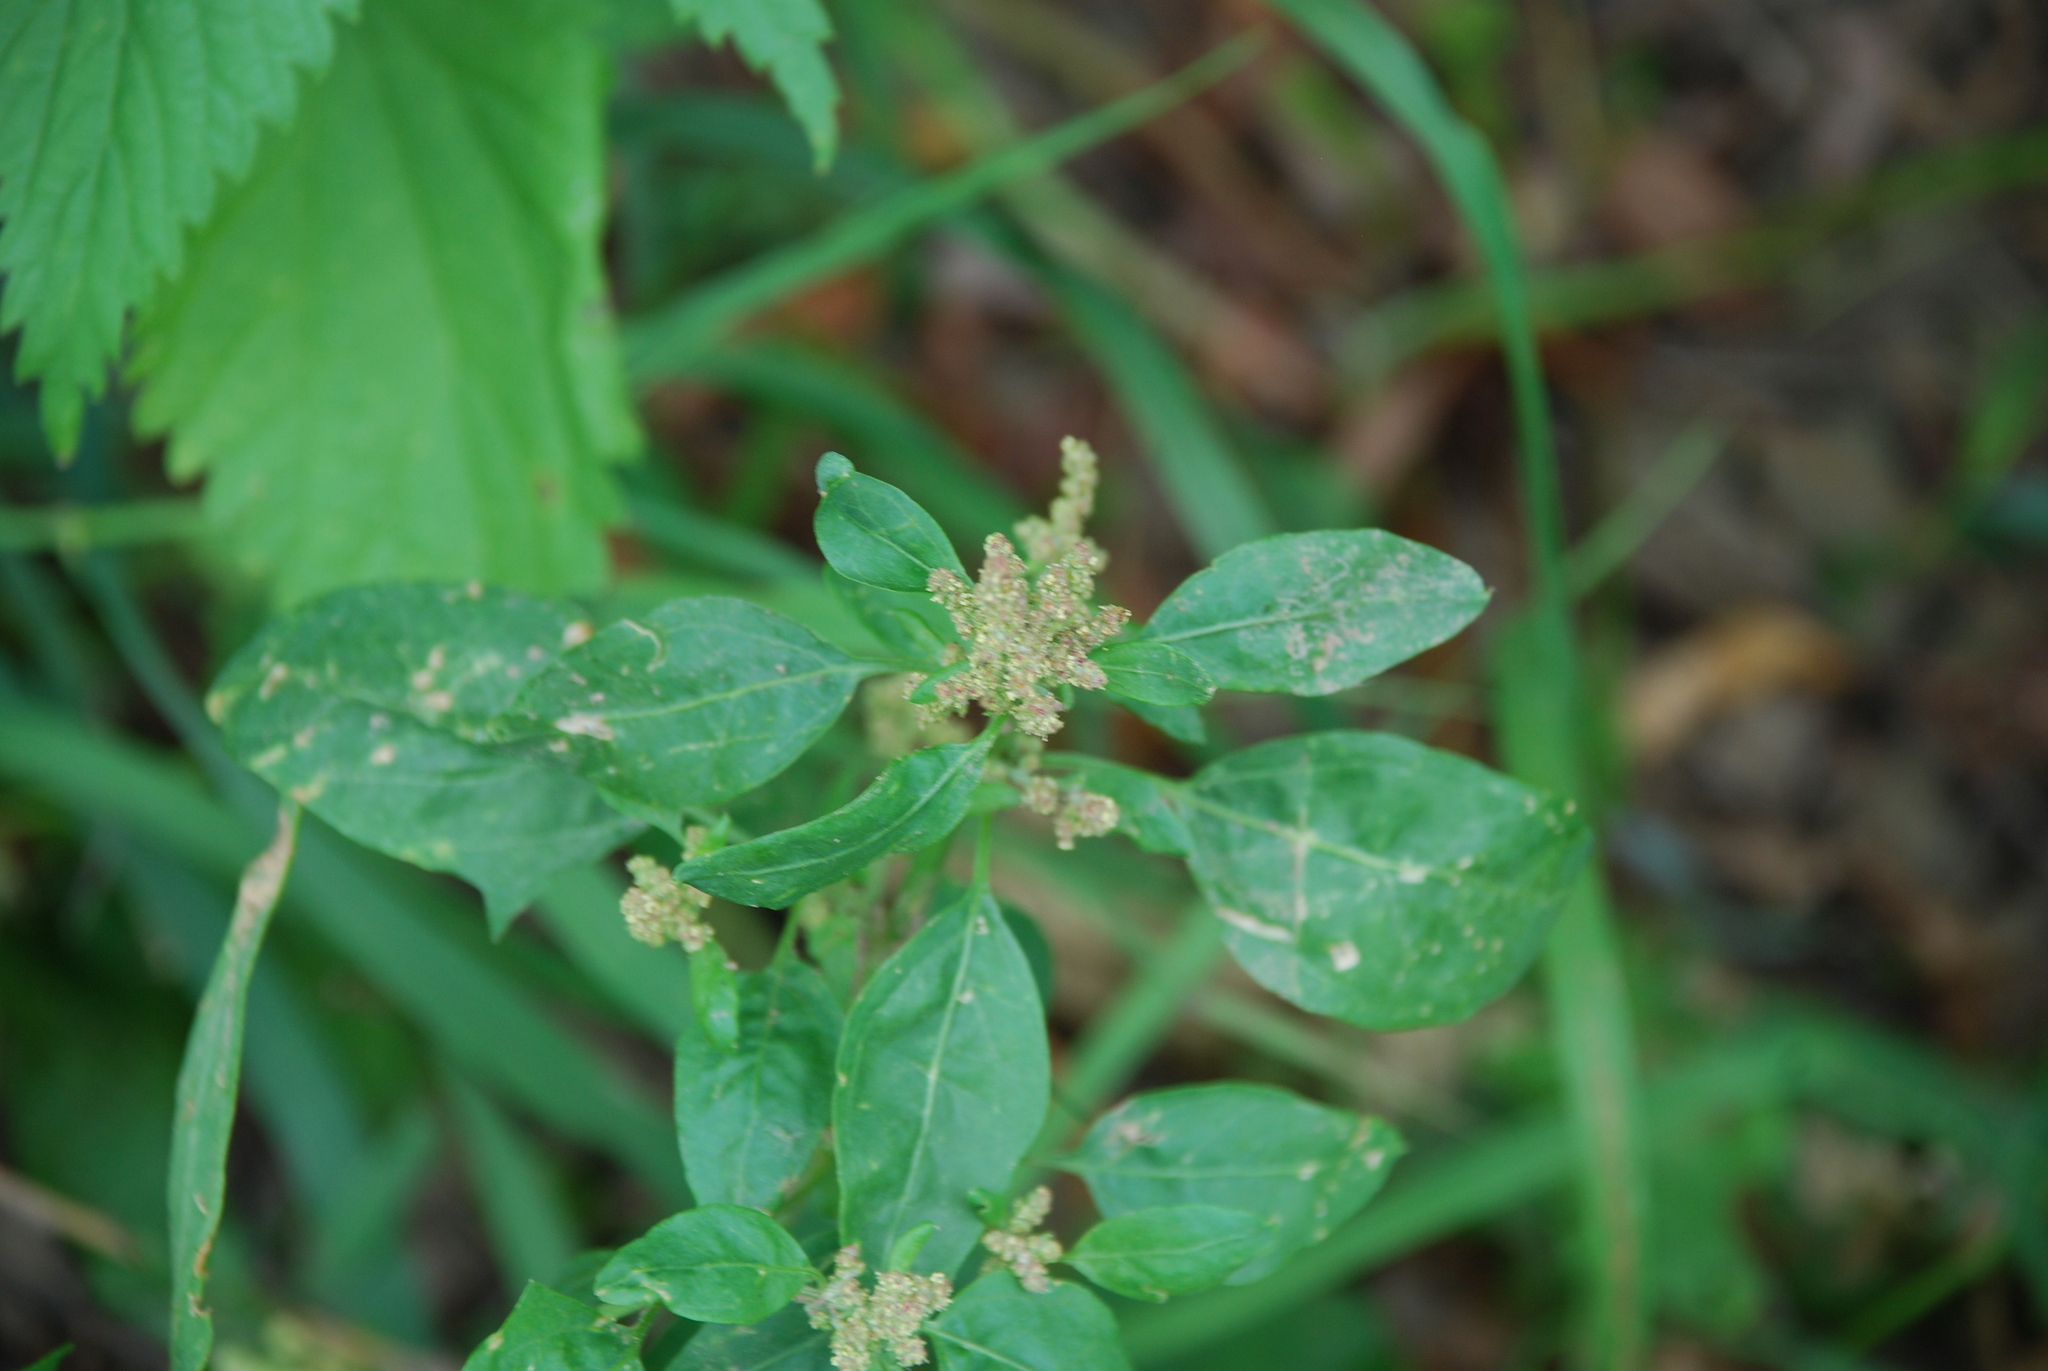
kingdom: Plantae
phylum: Tracheophyta
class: Magnoliopsida
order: Caryophyllales
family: Amaranthaceae
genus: Lipandra
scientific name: Lipandra polysperma
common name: Many-seed goosefoot
